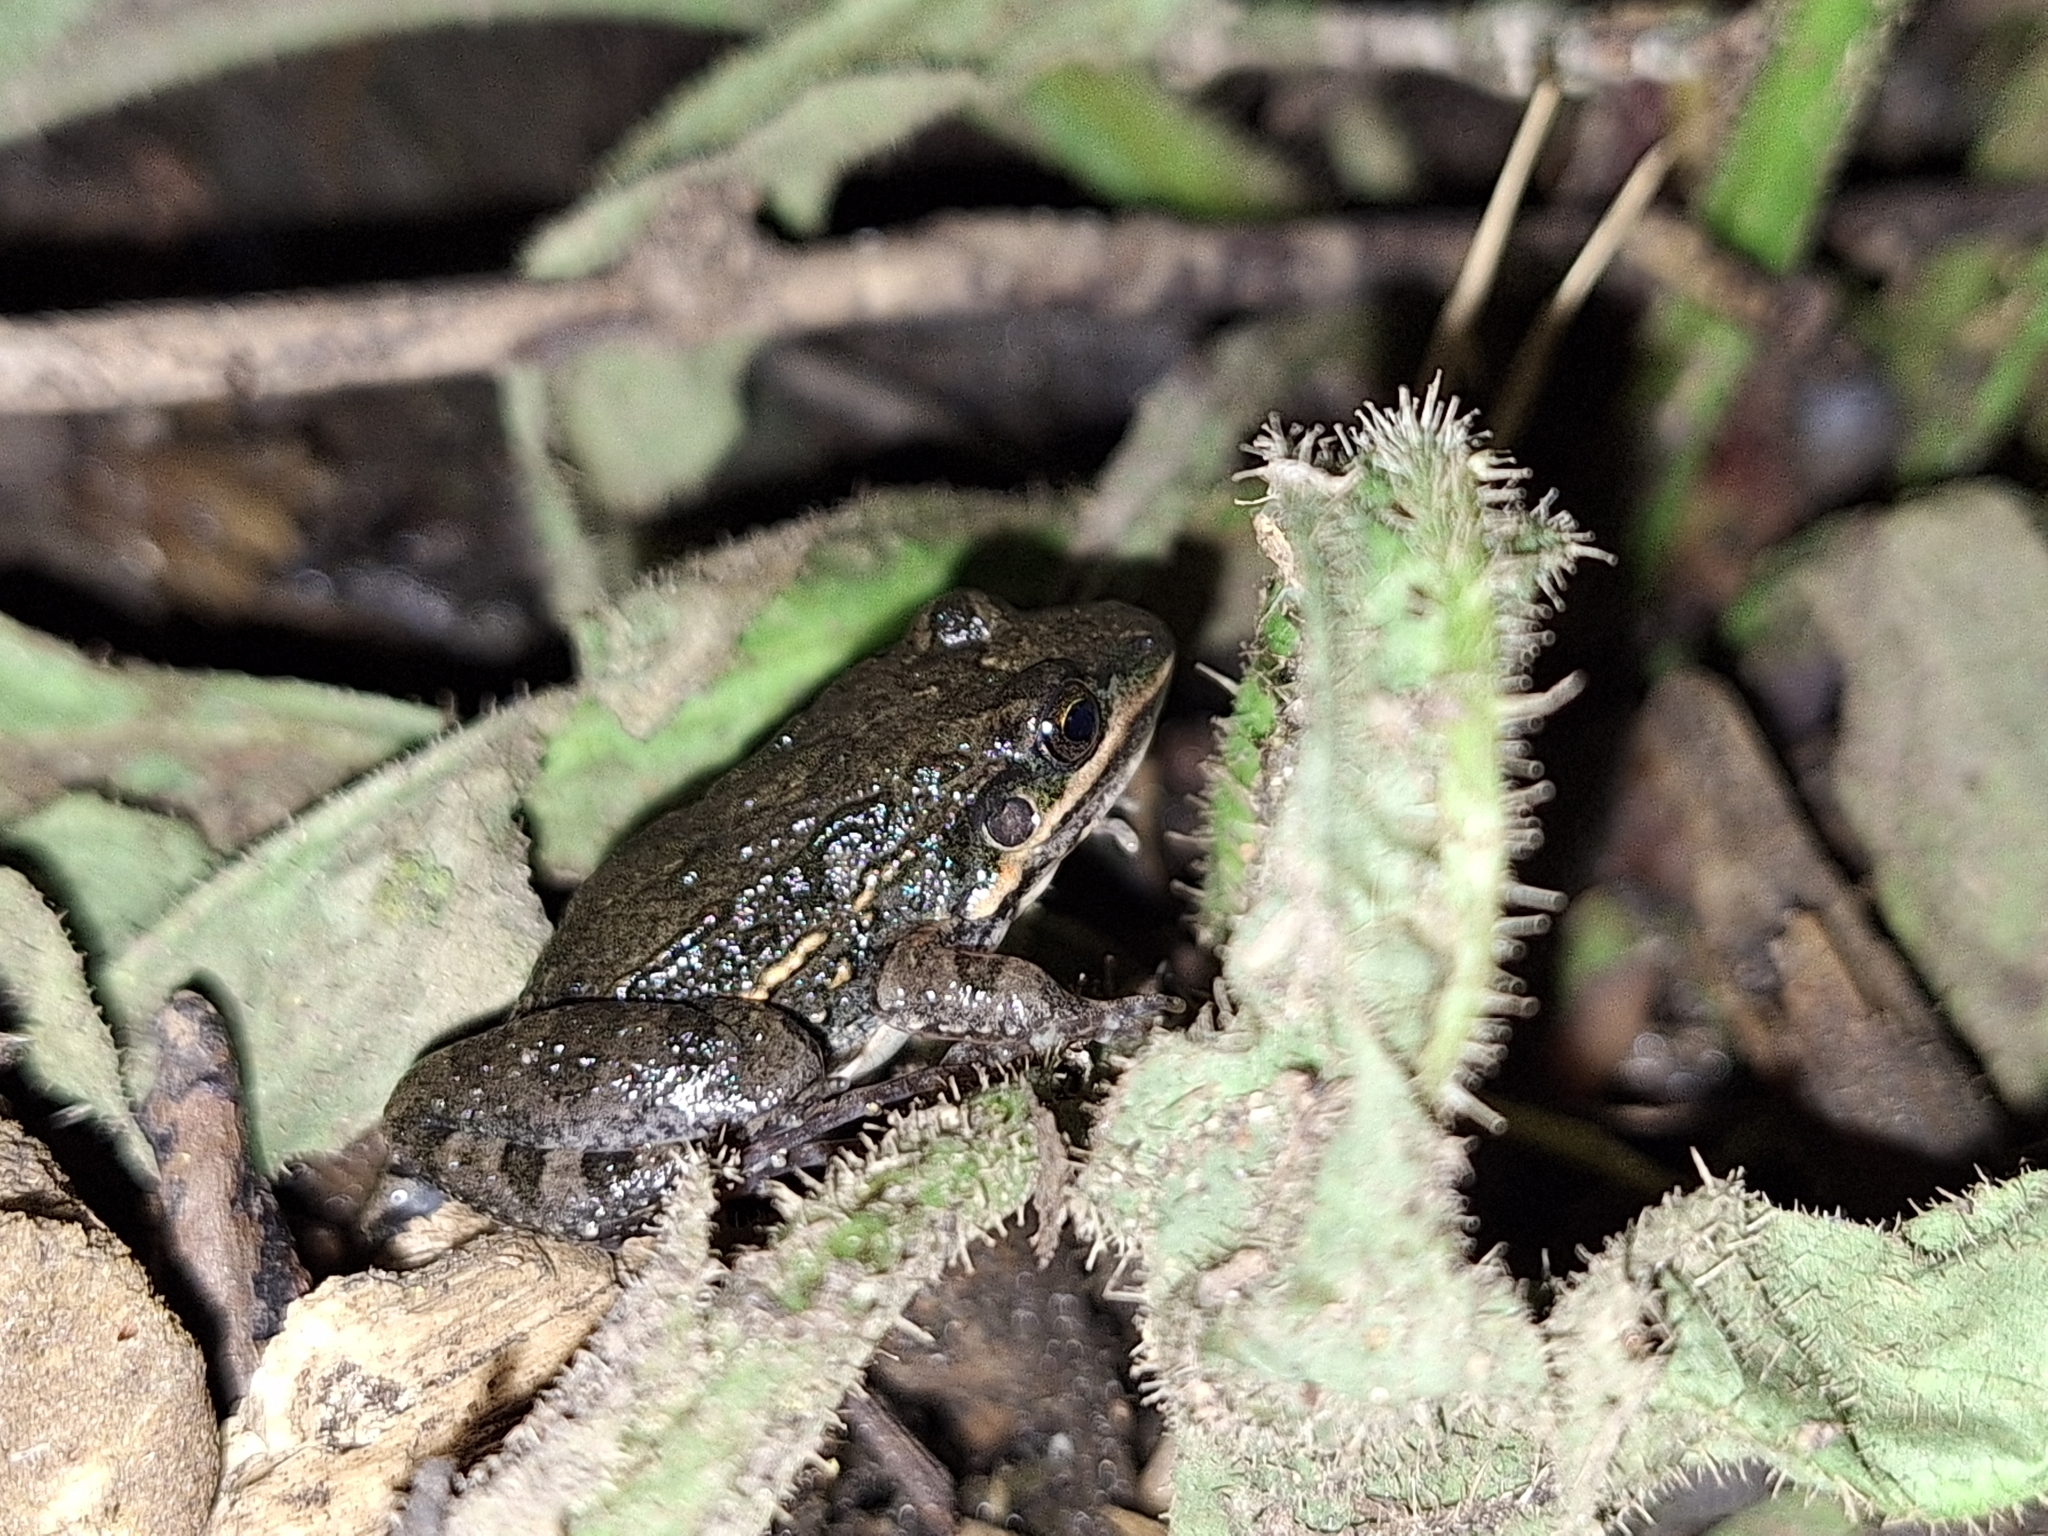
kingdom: Animalia
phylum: Chordata
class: Amphibia
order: Anura
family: Leptodactylidae
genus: Leptodactylus
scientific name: Leptodactylus latinasus
